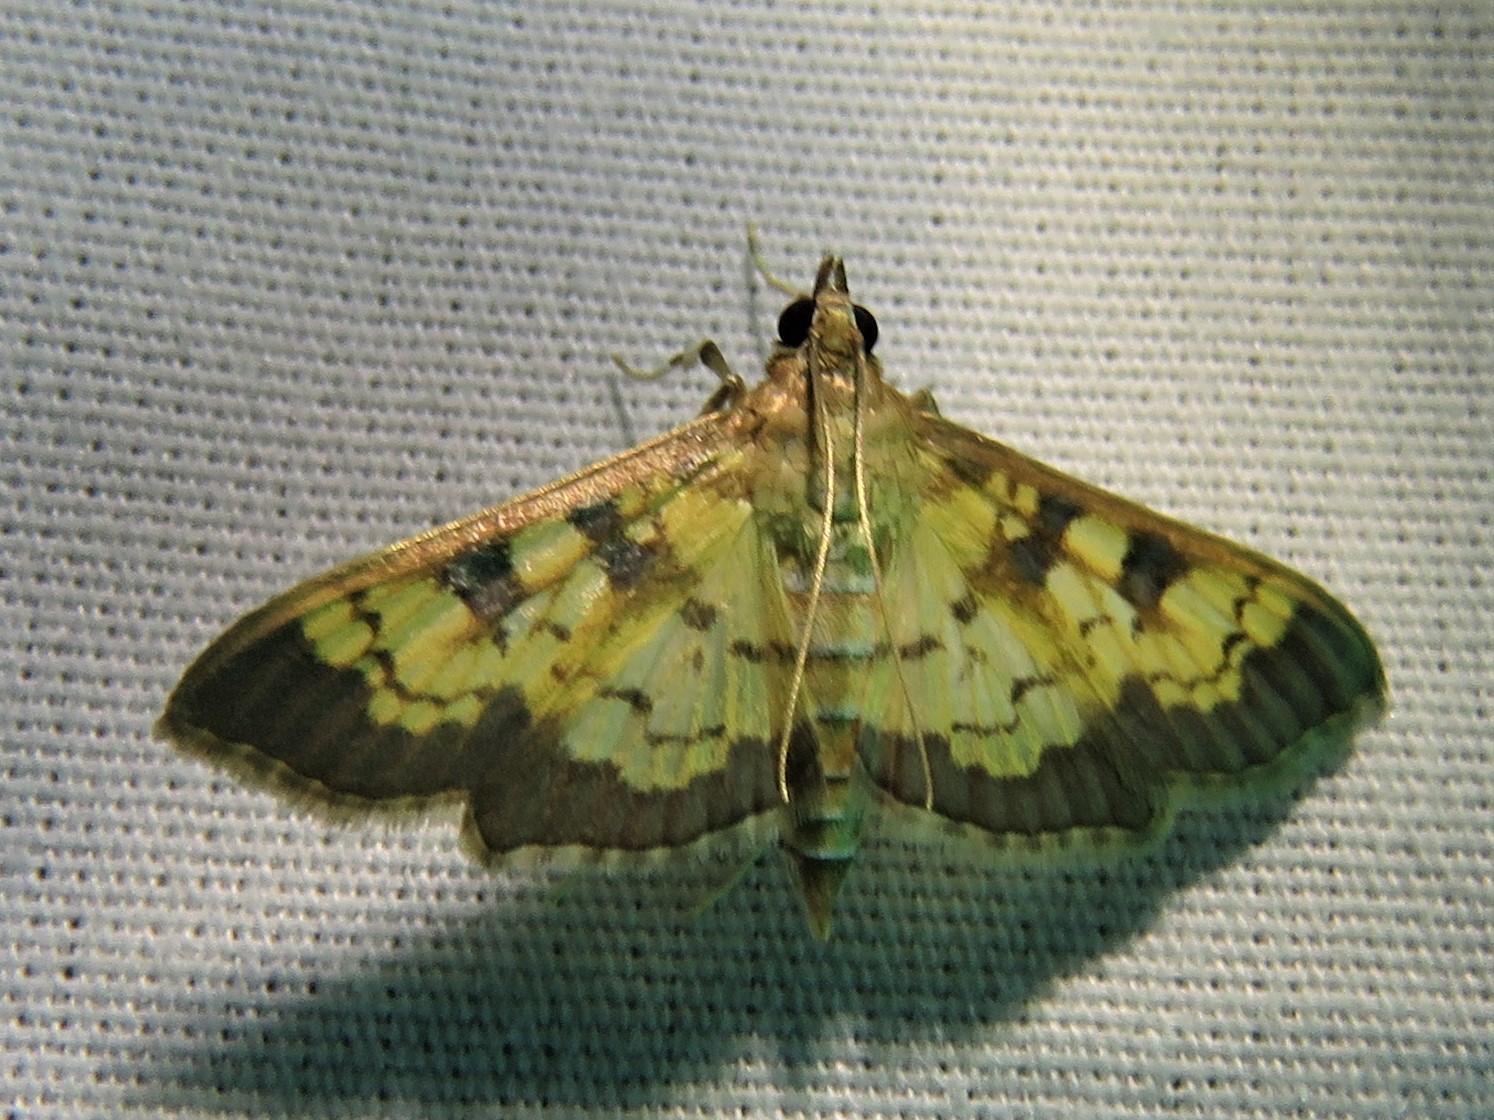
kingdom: Animalia
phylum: Arthropoda
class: Insecta
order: Lepidoptera
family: Crambidae
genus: Cryptographis
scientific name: Cryptographis elealis
